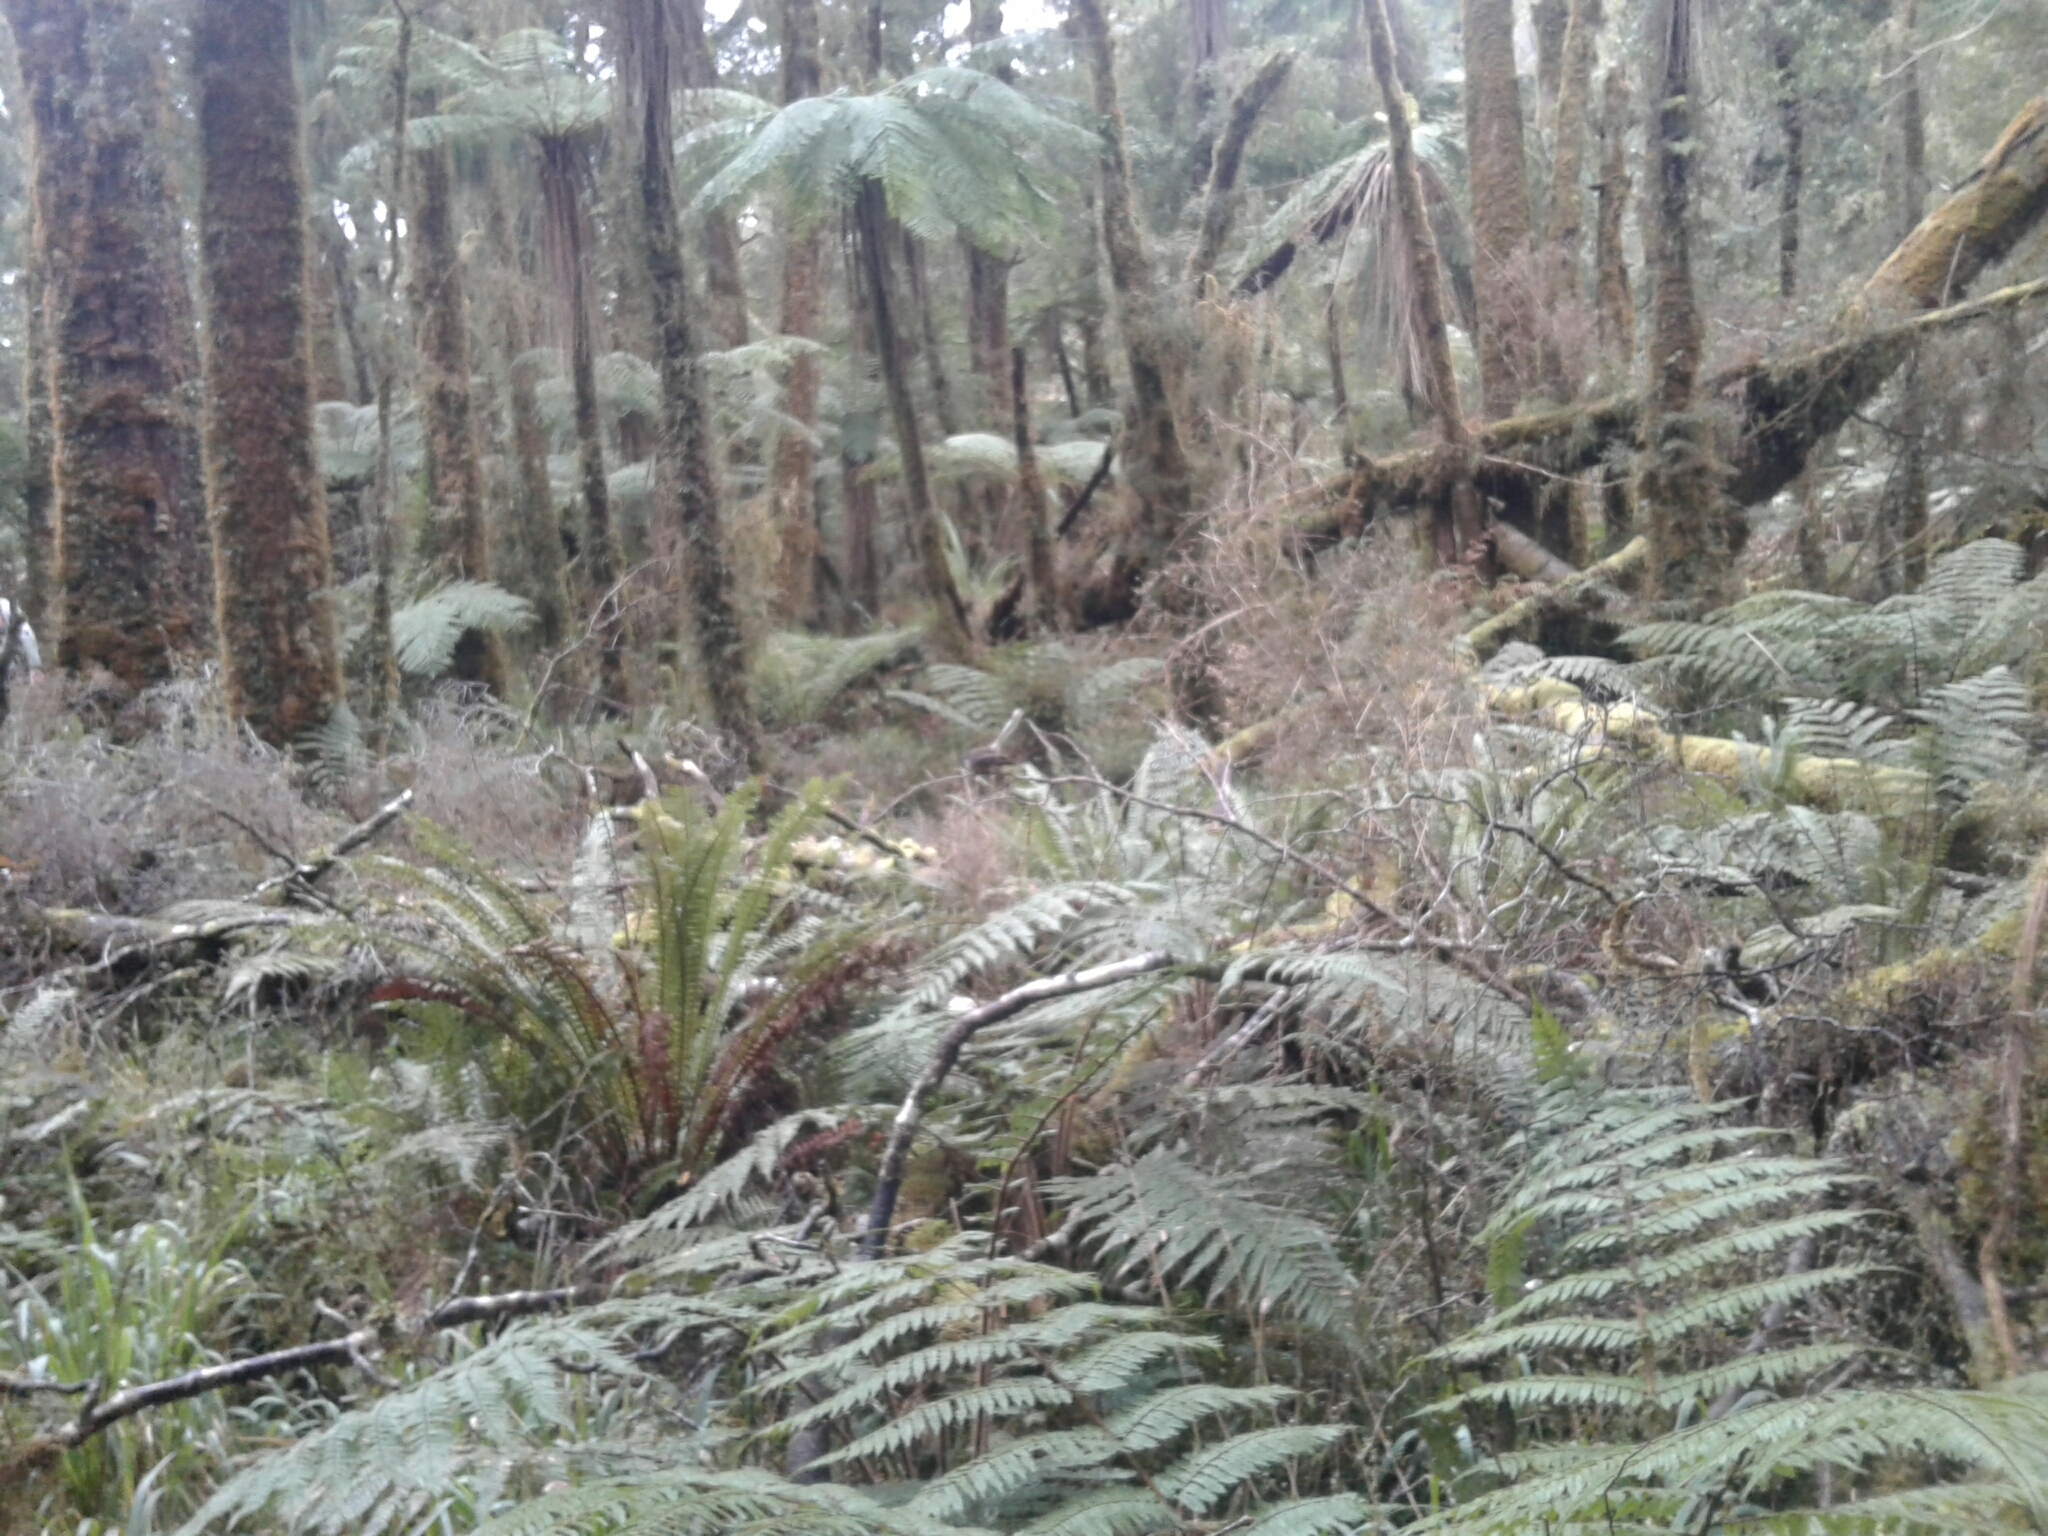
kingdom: Animalia
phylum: Chordata
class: Aves
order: Passeriformes
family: Rhipiduridae
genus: Rhipidura
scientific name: Rhipidura fuliginosa
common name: New zealand fantail
